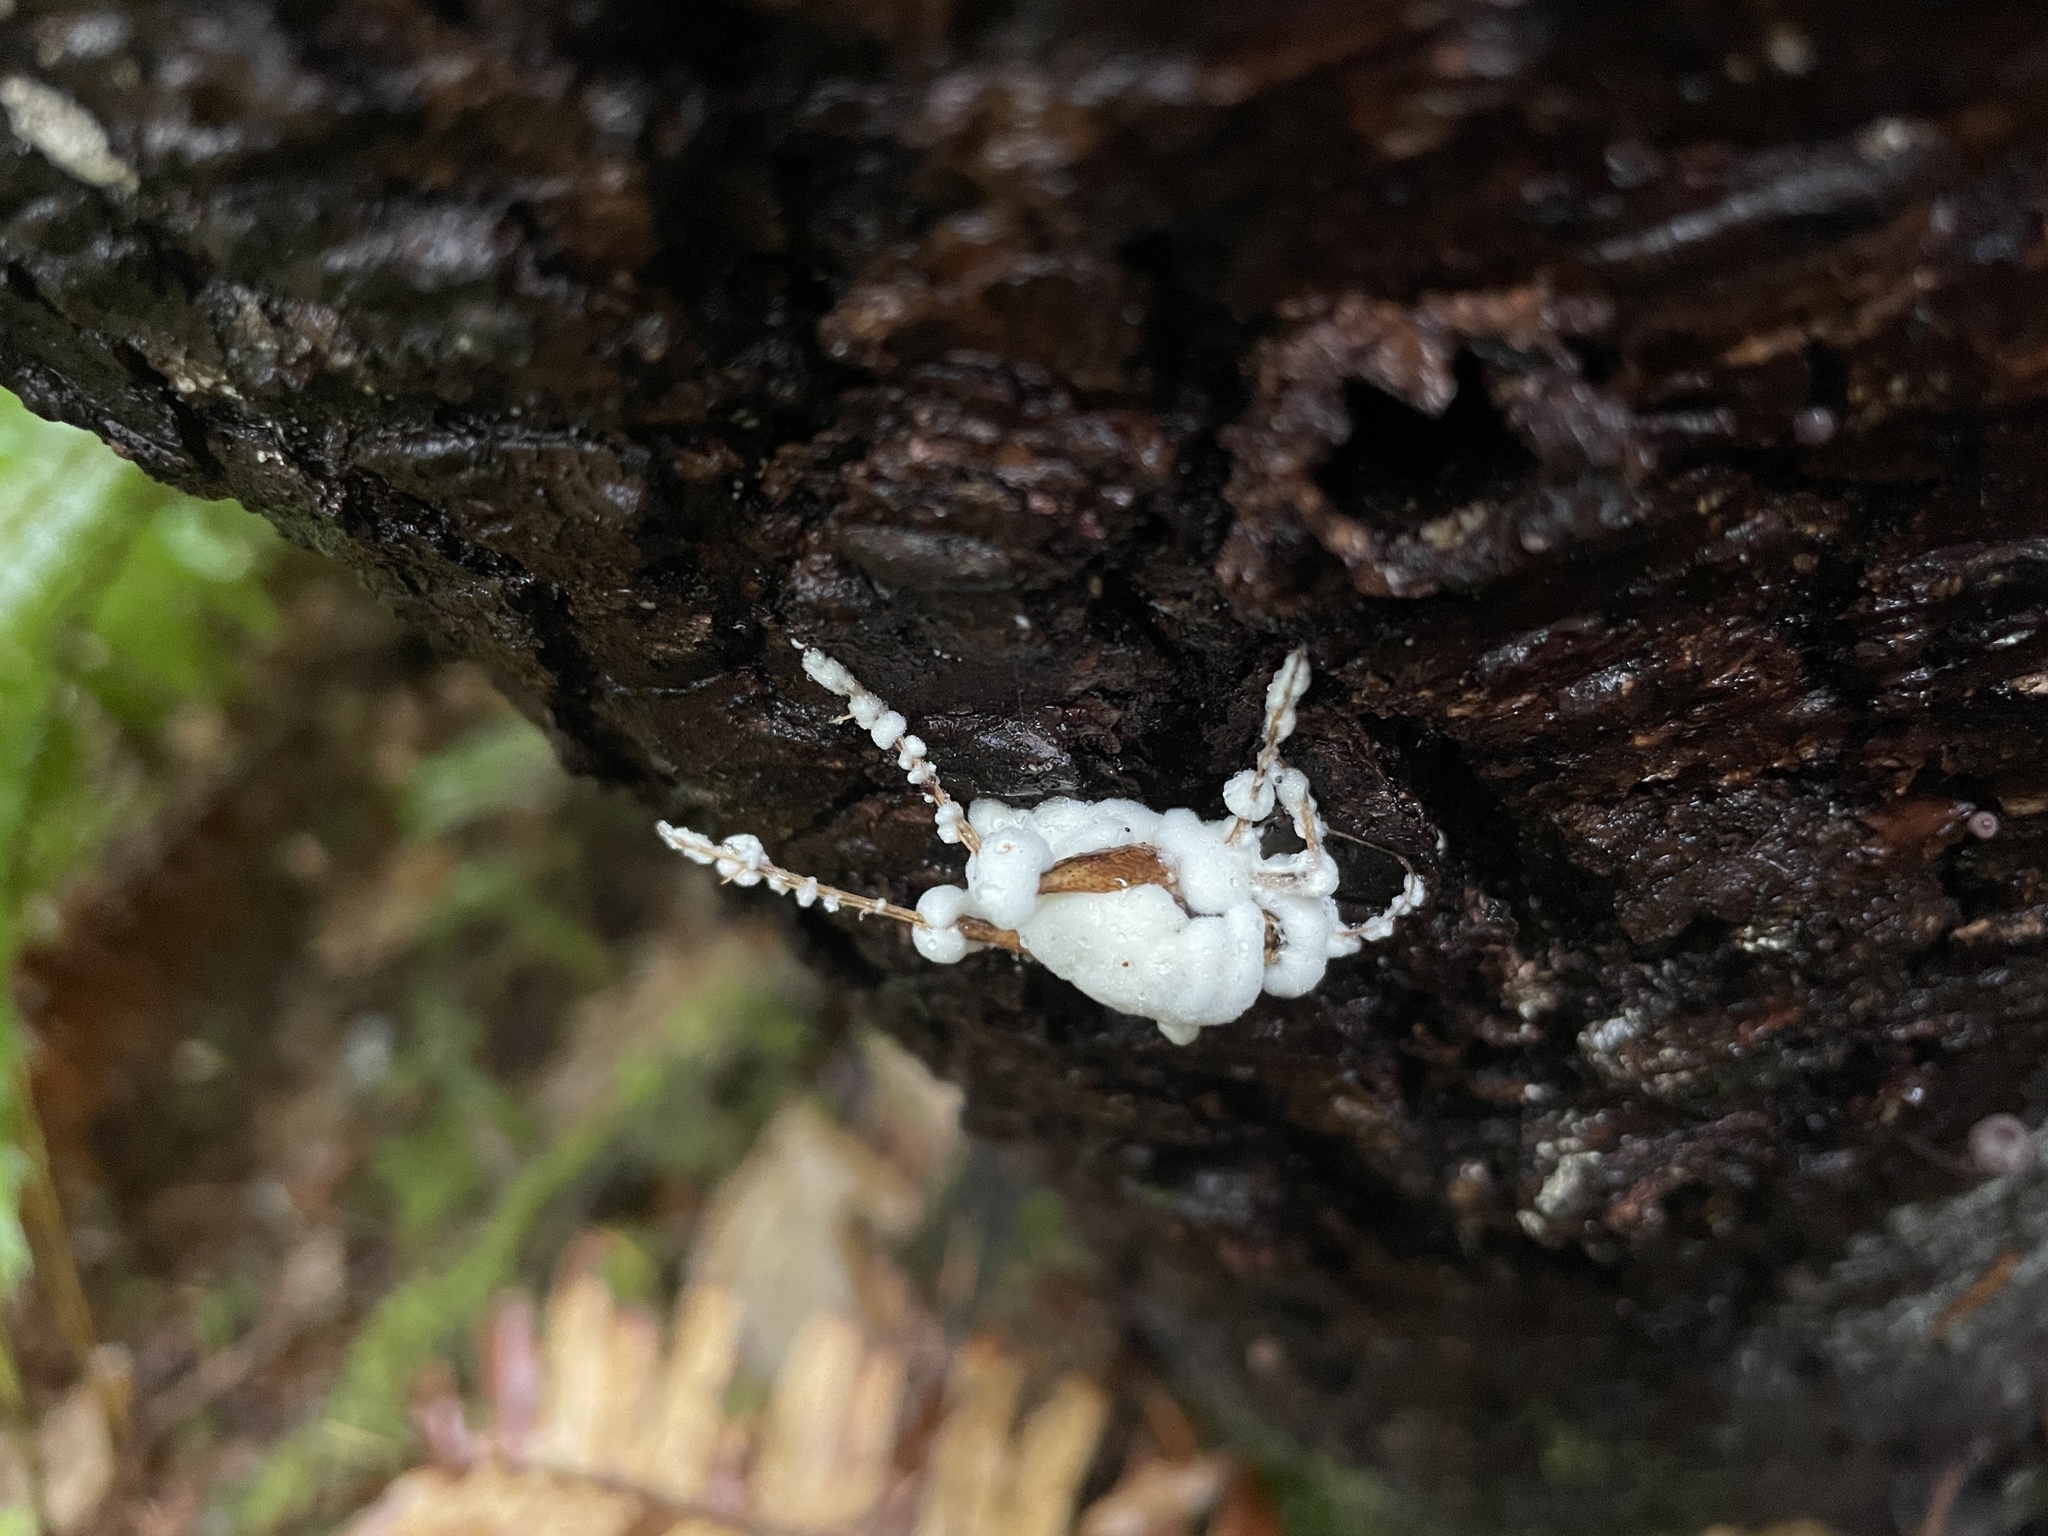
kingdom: Fungi
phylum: Ascomycota
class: Sordariomycetes
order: Hypocreales
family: Cordycipitaceae
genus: Beauveria
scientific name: Beauveria bassiana
